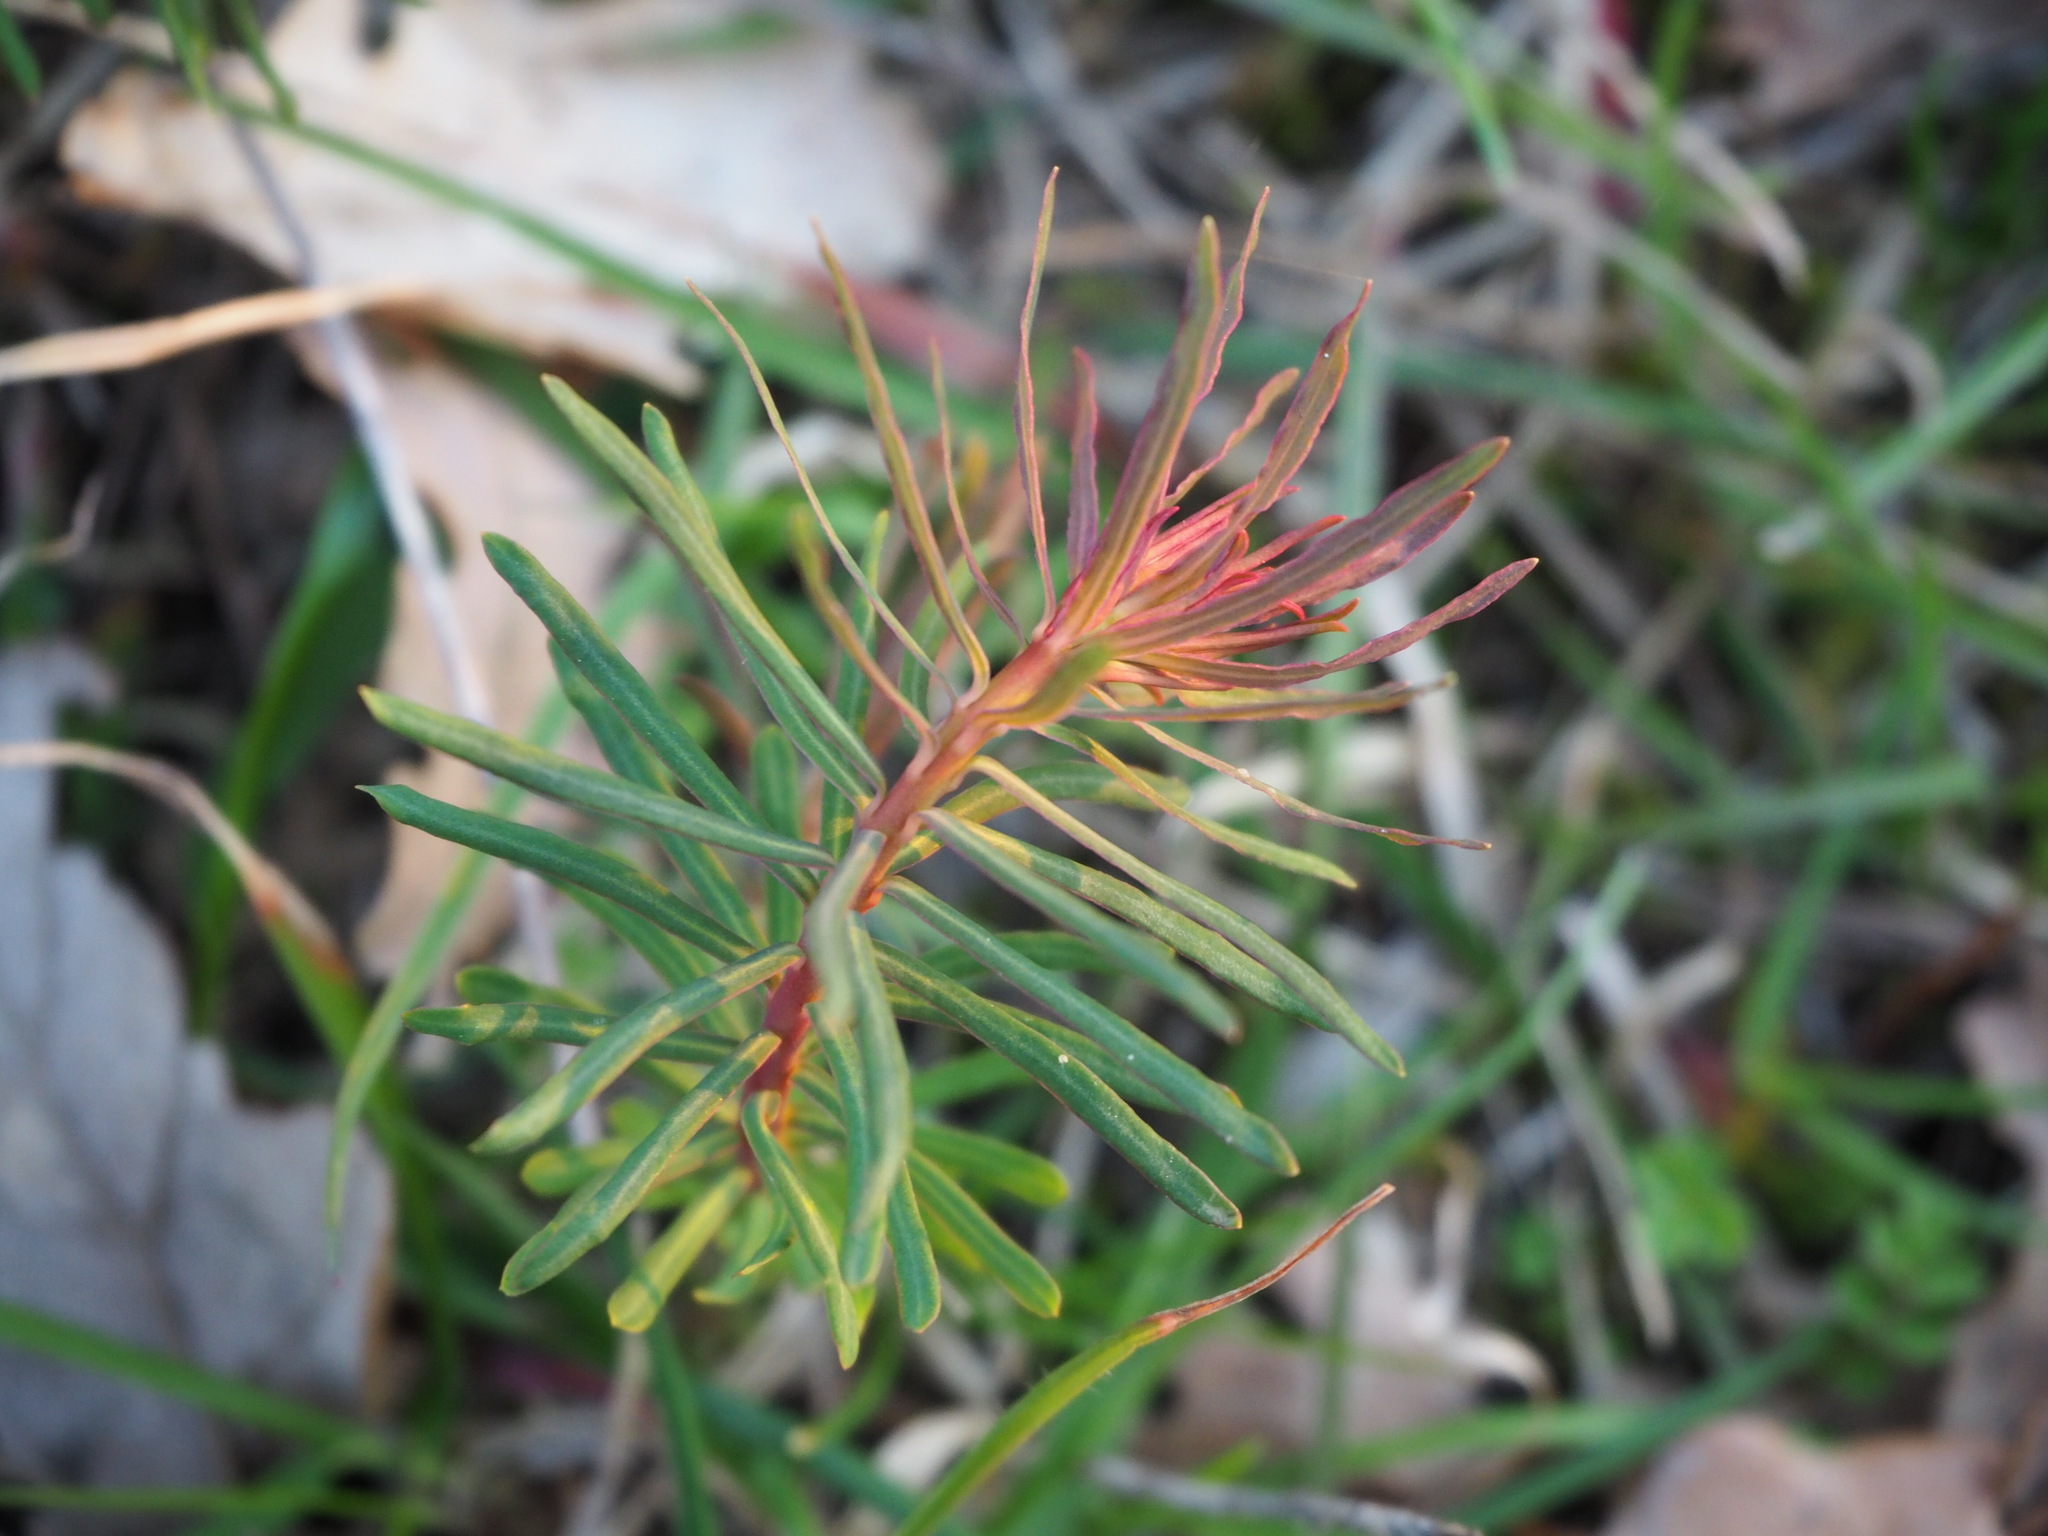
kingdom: Plantae
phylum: Tracheophyta
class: Magnoliopsida
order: Malpighiales
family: Euphorbiaceae
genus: Euphorbia
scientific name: Euphorbia cyparissias
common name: Cypress spurge
